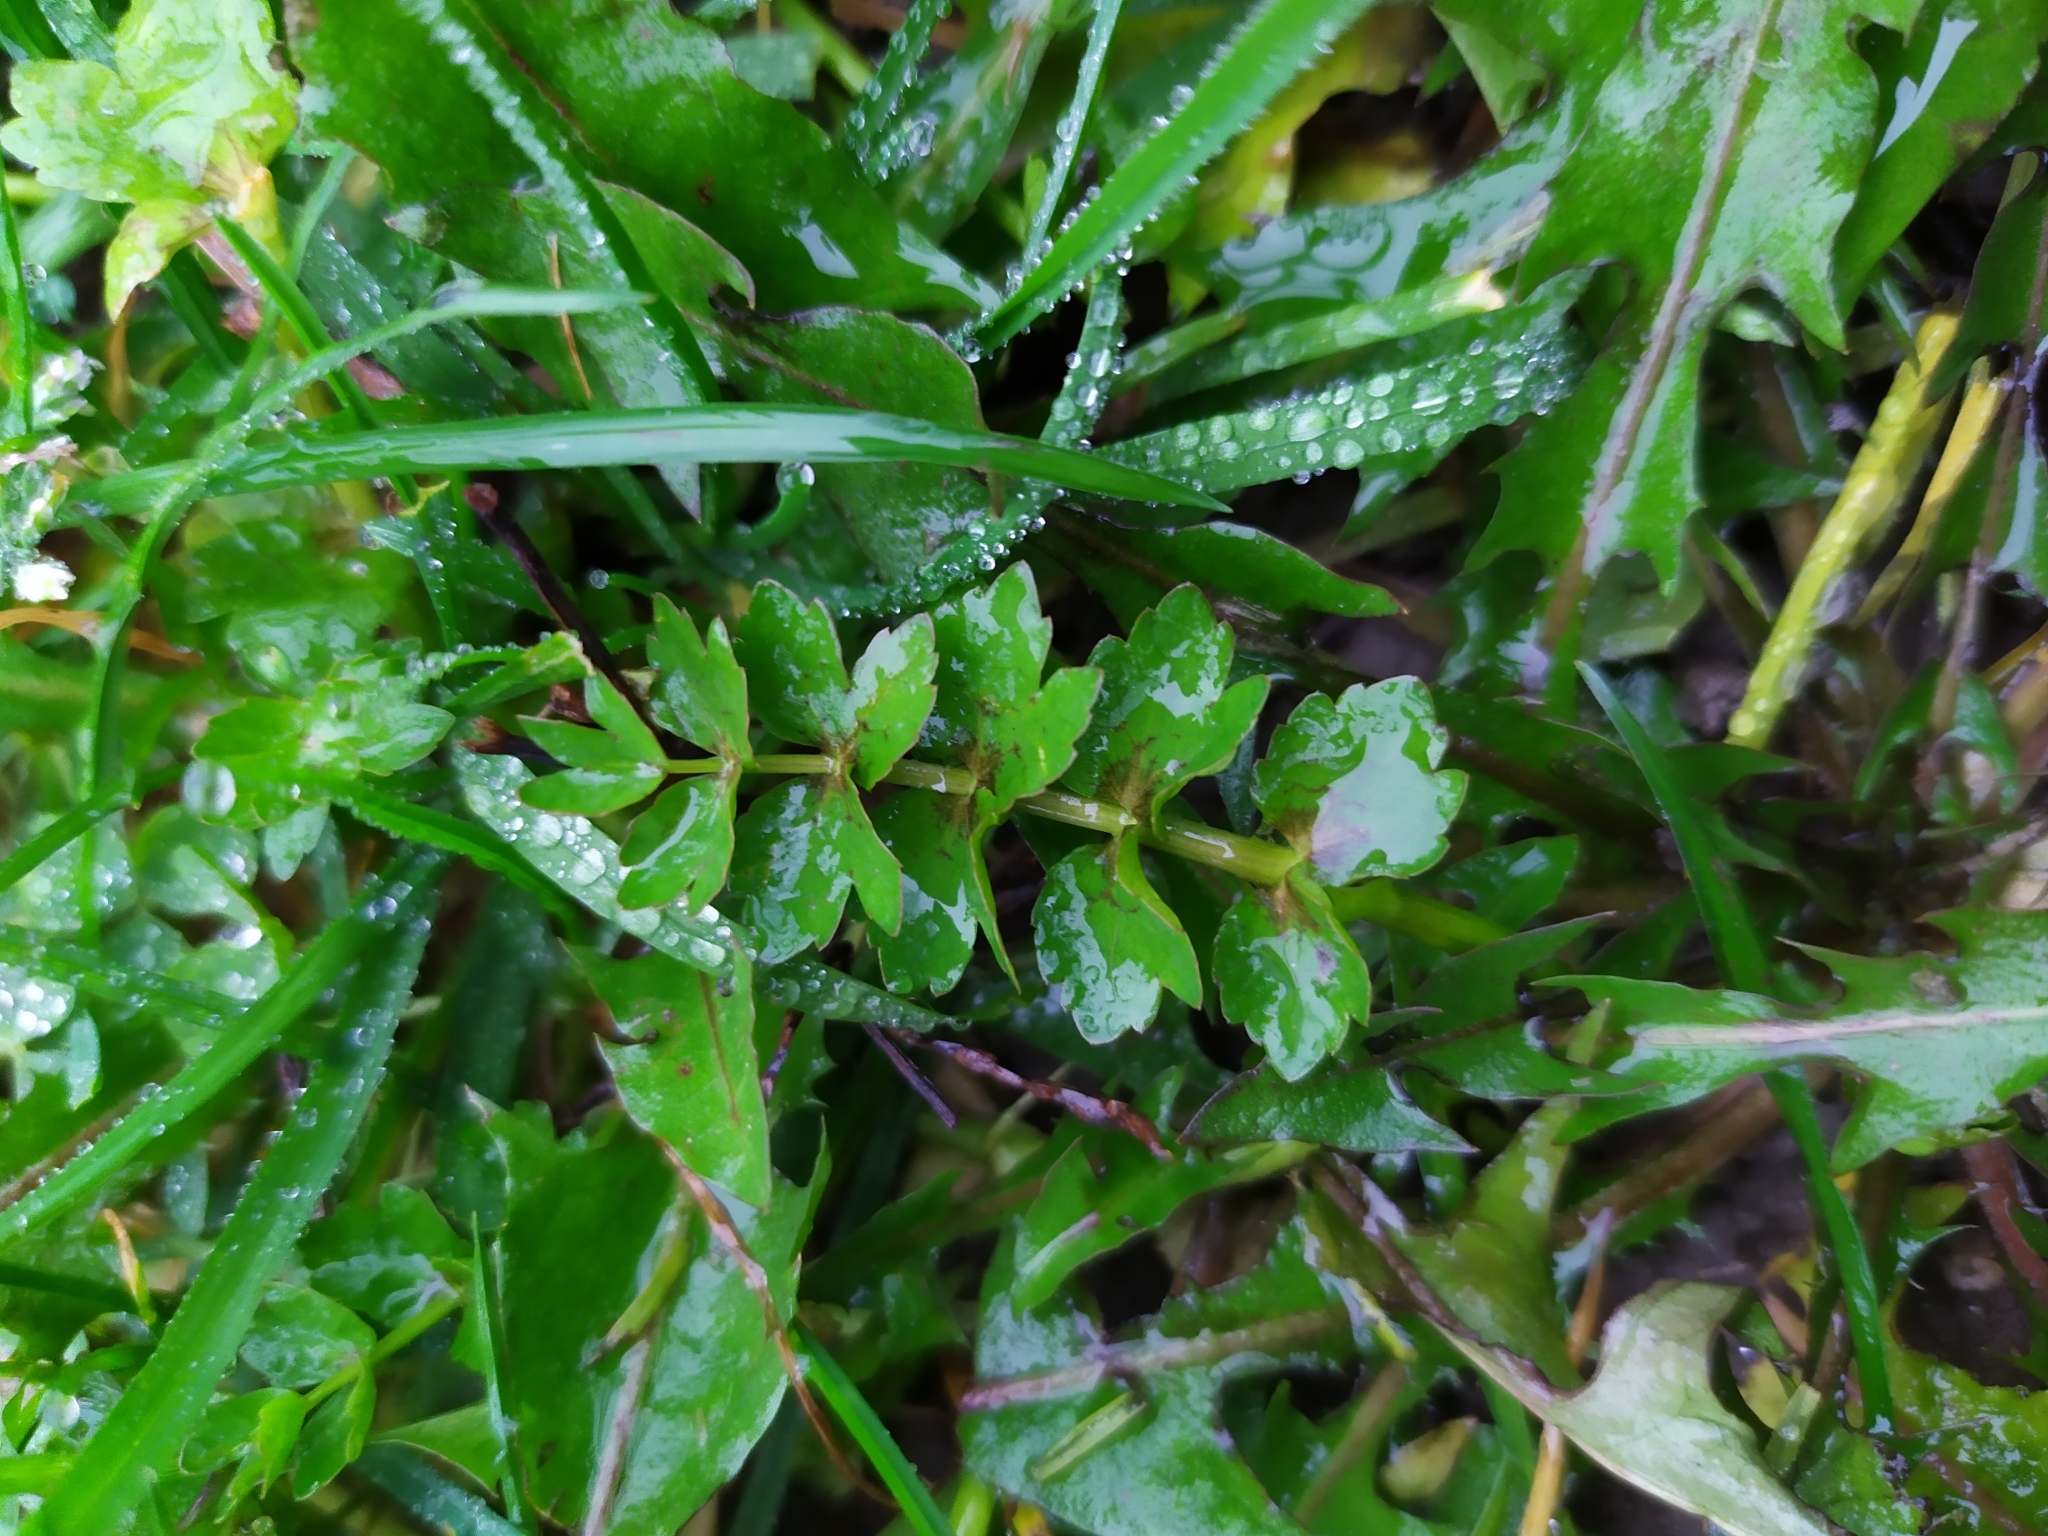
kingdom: Plantae
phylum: Tracheophyta
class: Magnoliopsida
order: Apiales
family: Apiaceae
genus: Helosciadium
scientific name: Helosciadium repens
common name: Creeping marshwort
